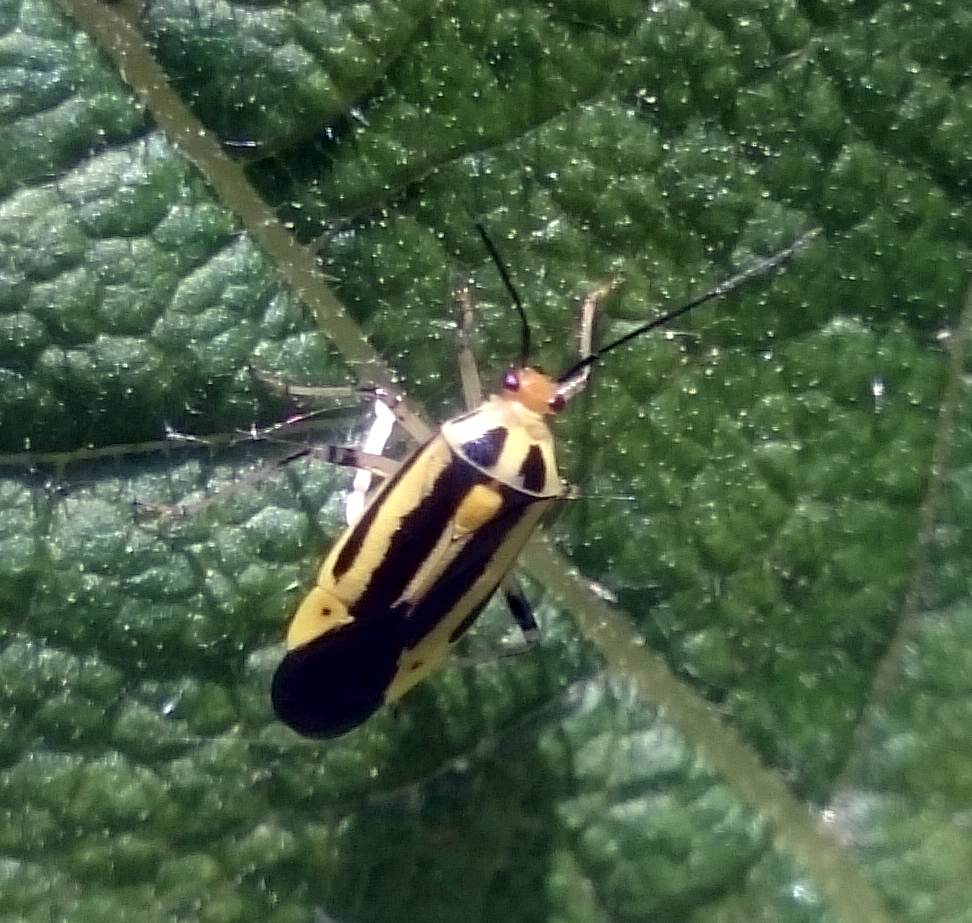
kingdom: Animalia
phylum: Arthropoda
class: Insecta
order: Hemiptera
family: Miridae
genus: Poecilocapsus
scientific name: Poecilocapsus lineatus
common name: Four-lined plant bug
